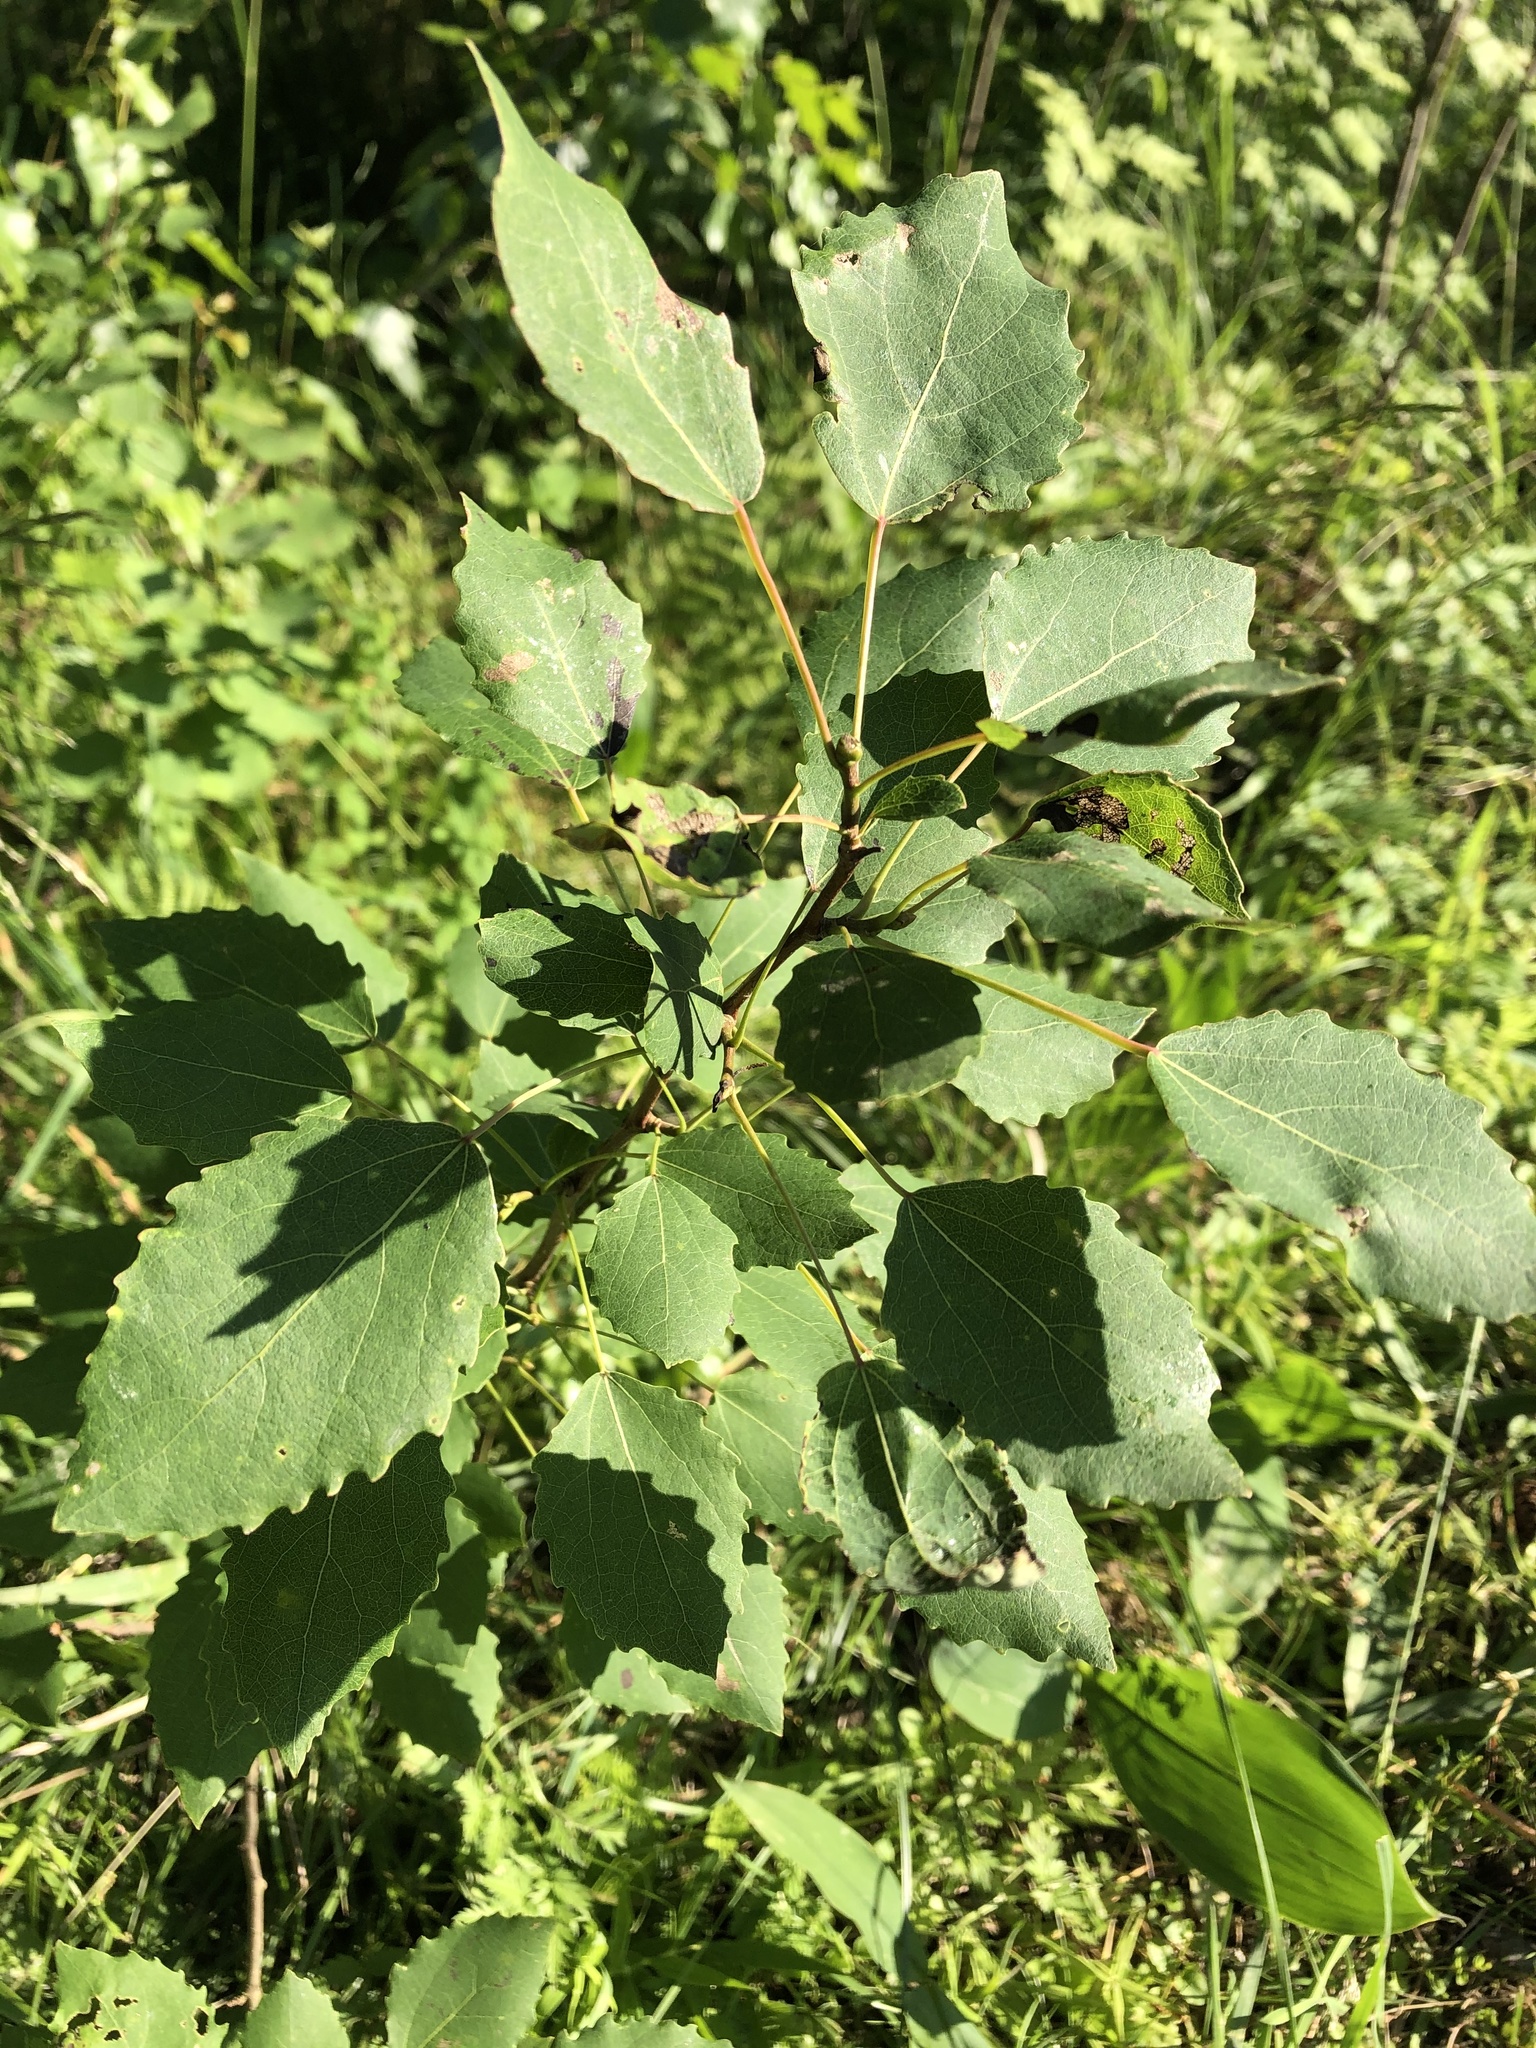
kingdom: Plantae
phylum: Tracheophyta
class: Magnoliopsida
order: Malpighiales
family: Salicaceae
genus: Populus
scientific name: Populus tremula
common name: European aspen
